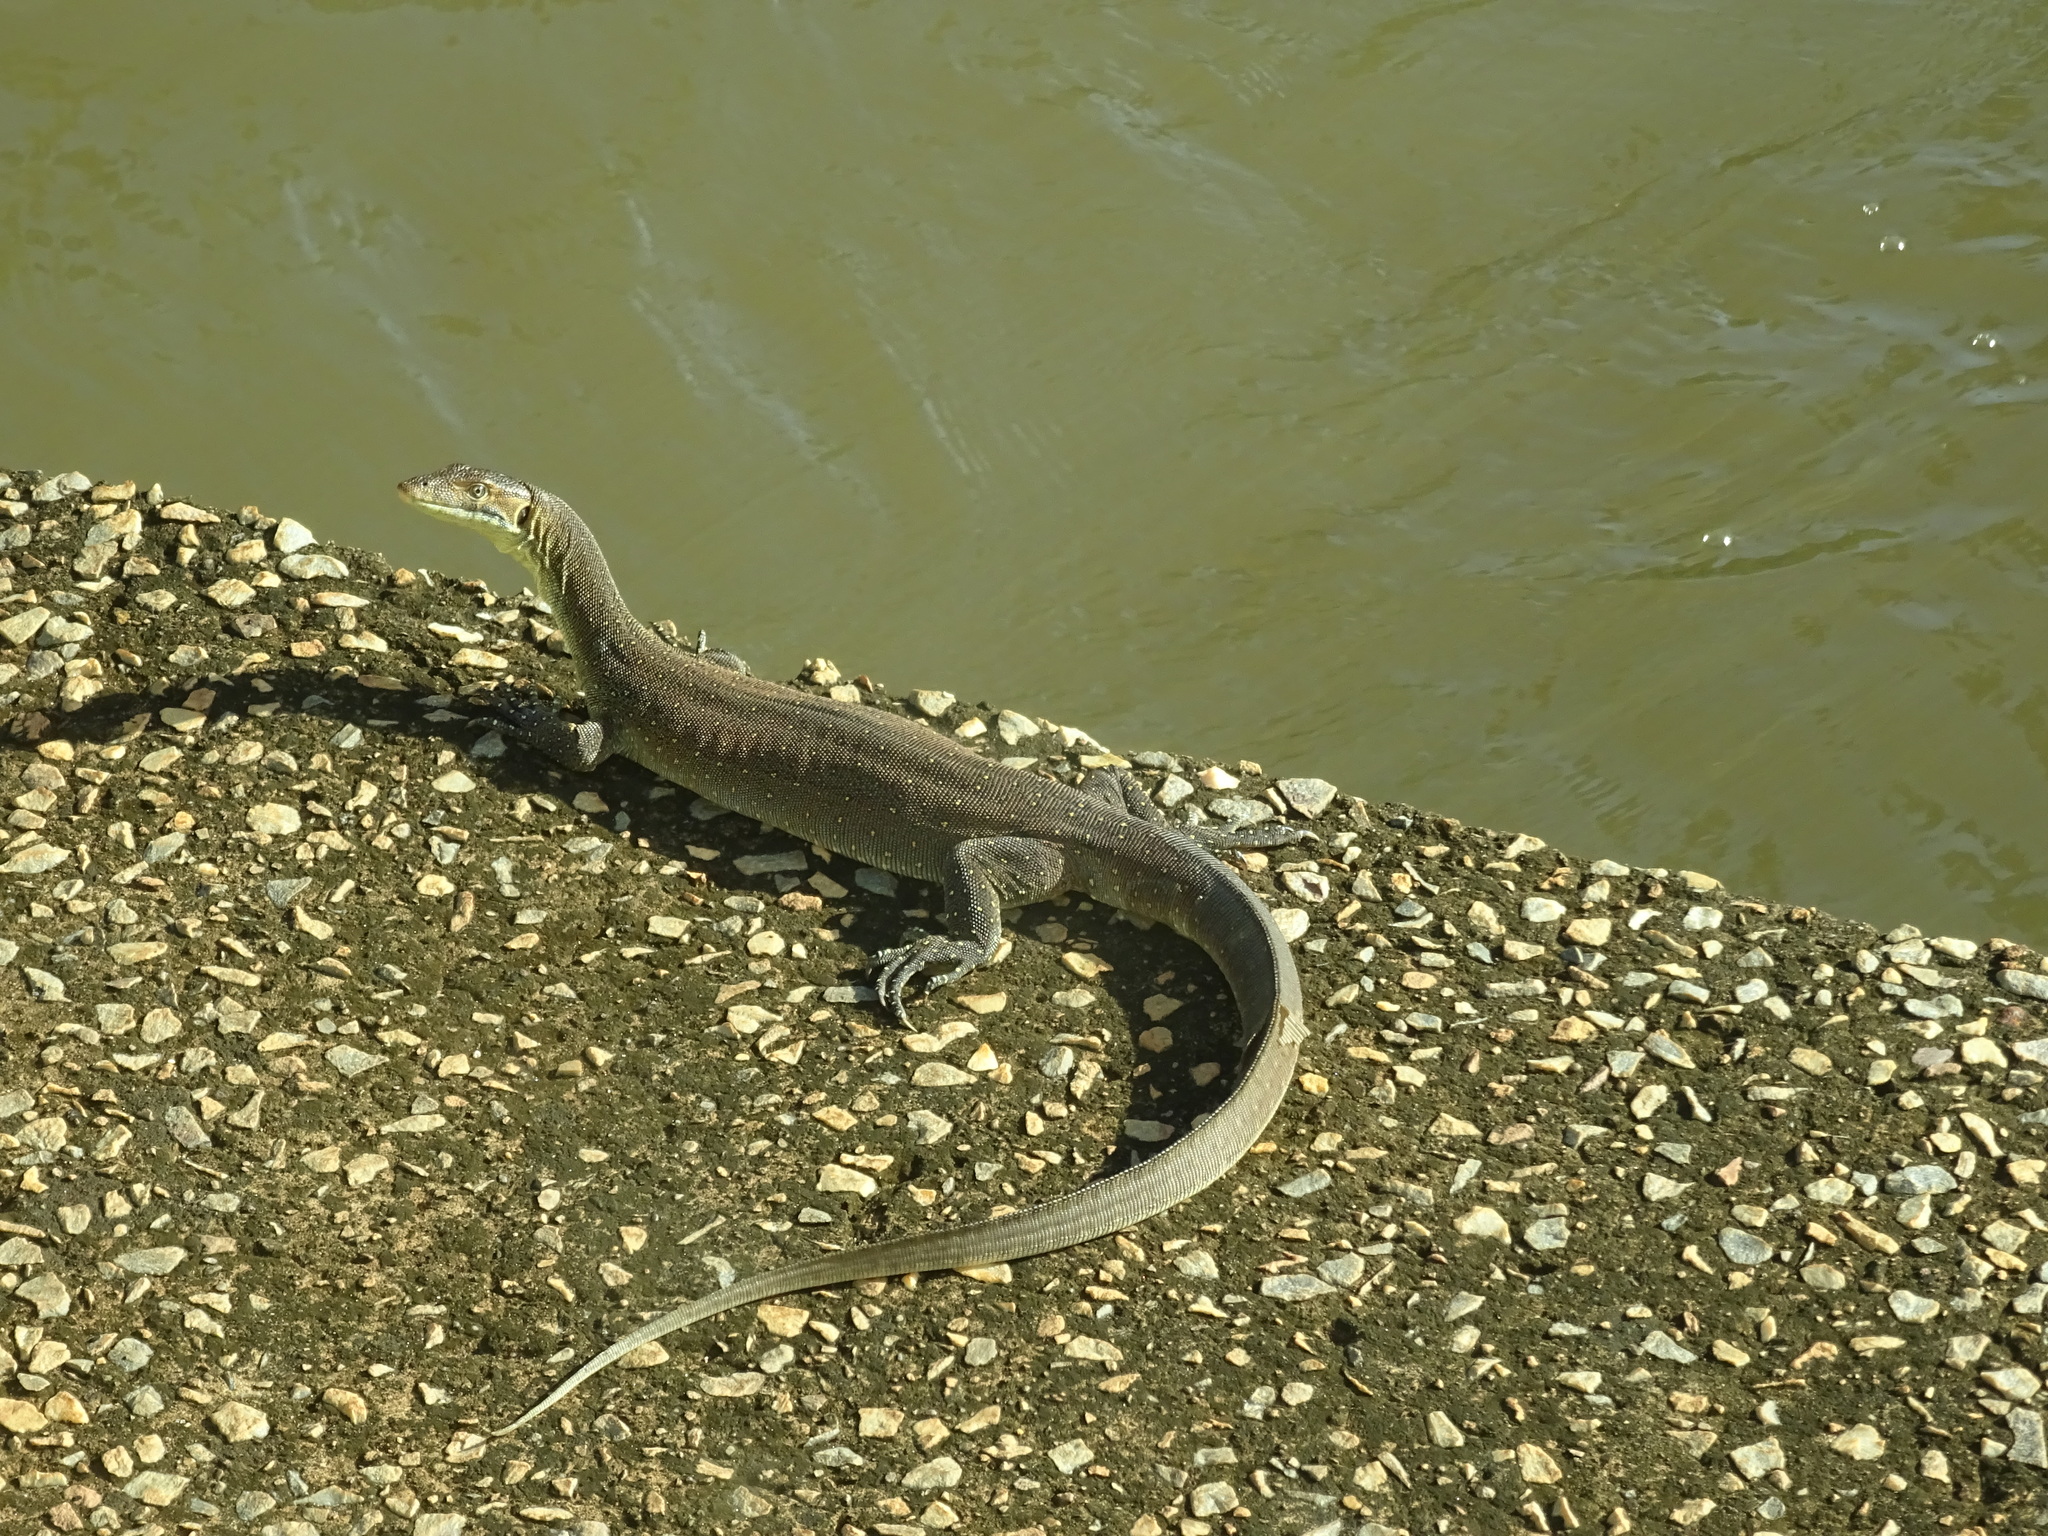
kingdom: Animalia
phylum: Chordata
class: Squamata
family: Varanidae
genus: Varanus
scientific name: Varanus mertensi
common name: Mertens's water monitor
